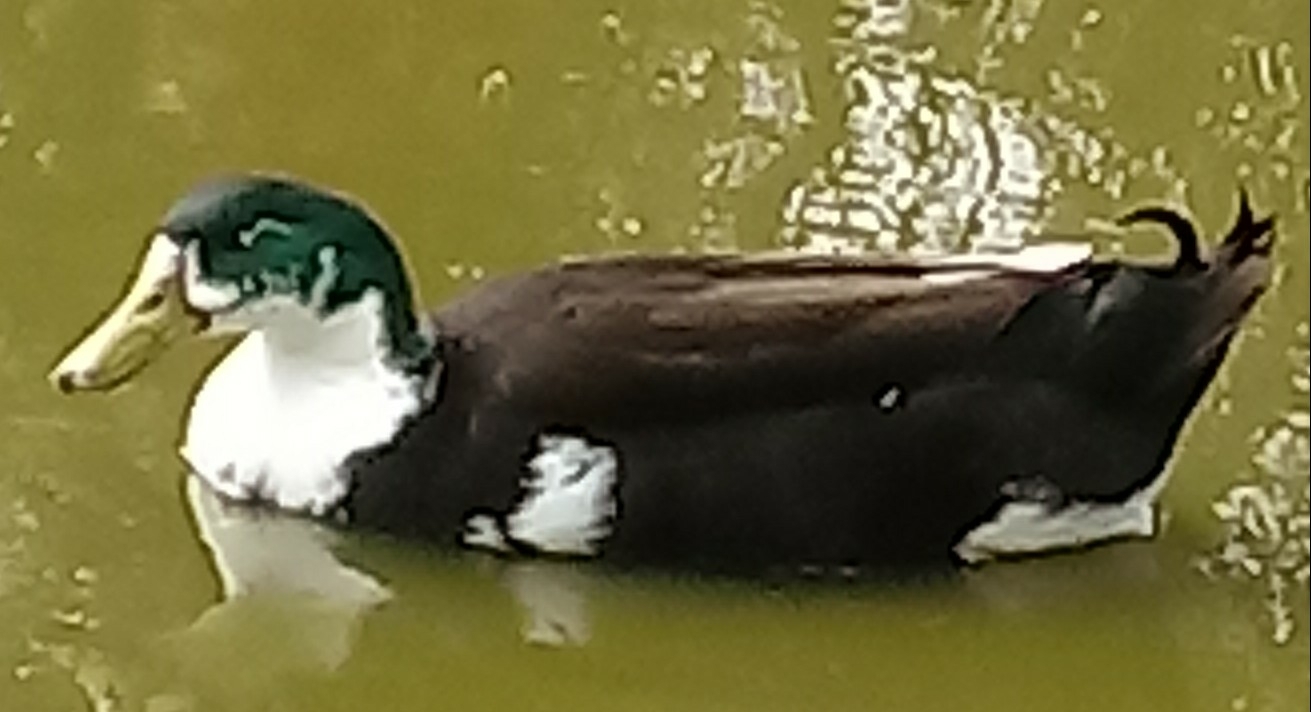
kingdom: Animalia
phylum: Chordata
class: Aves
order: Anseriformes
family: Anatidae
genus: Anas
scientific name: Anas platyrhynchos
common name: Mallard
